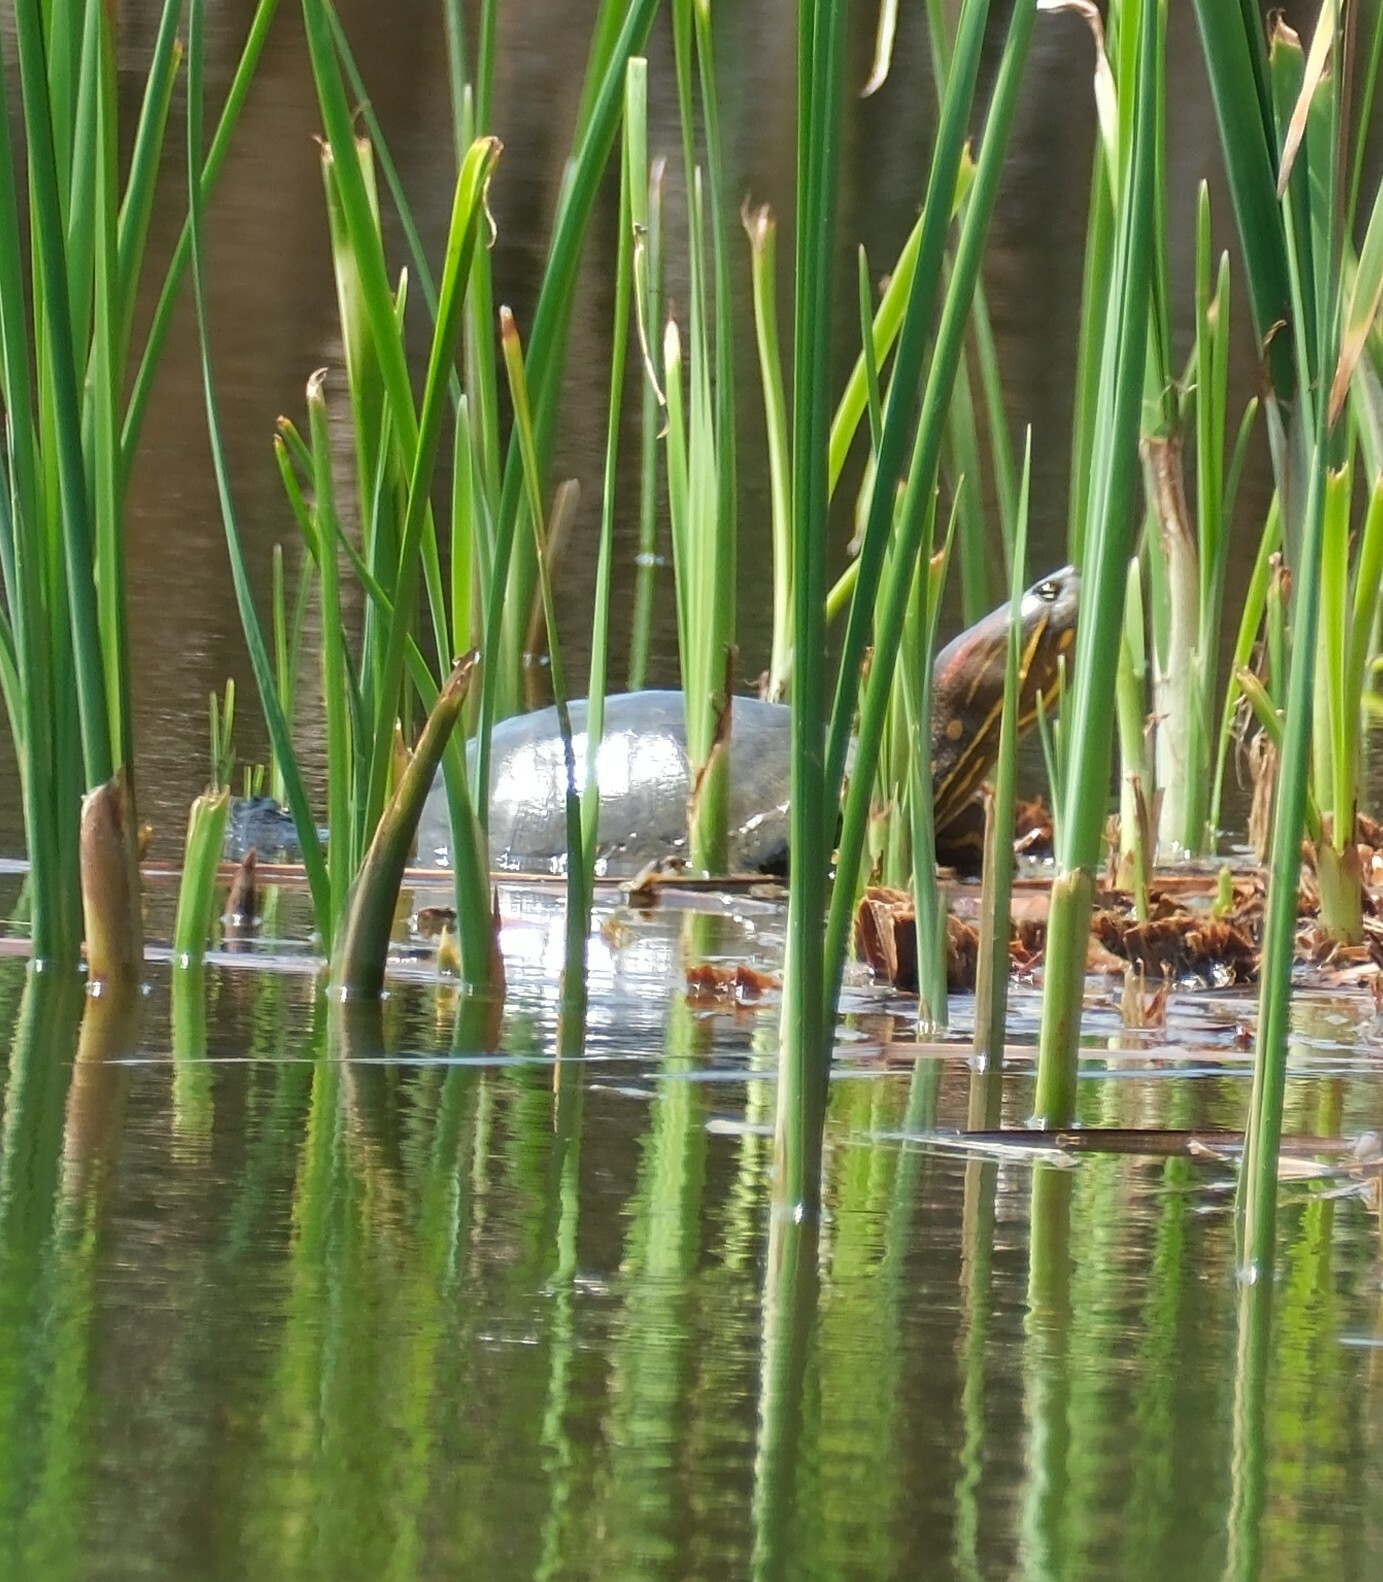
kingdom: Animalia
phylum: Chordata
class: Testudines
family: Emydidae
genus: Trachemys
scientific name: Trachemys callirostris
